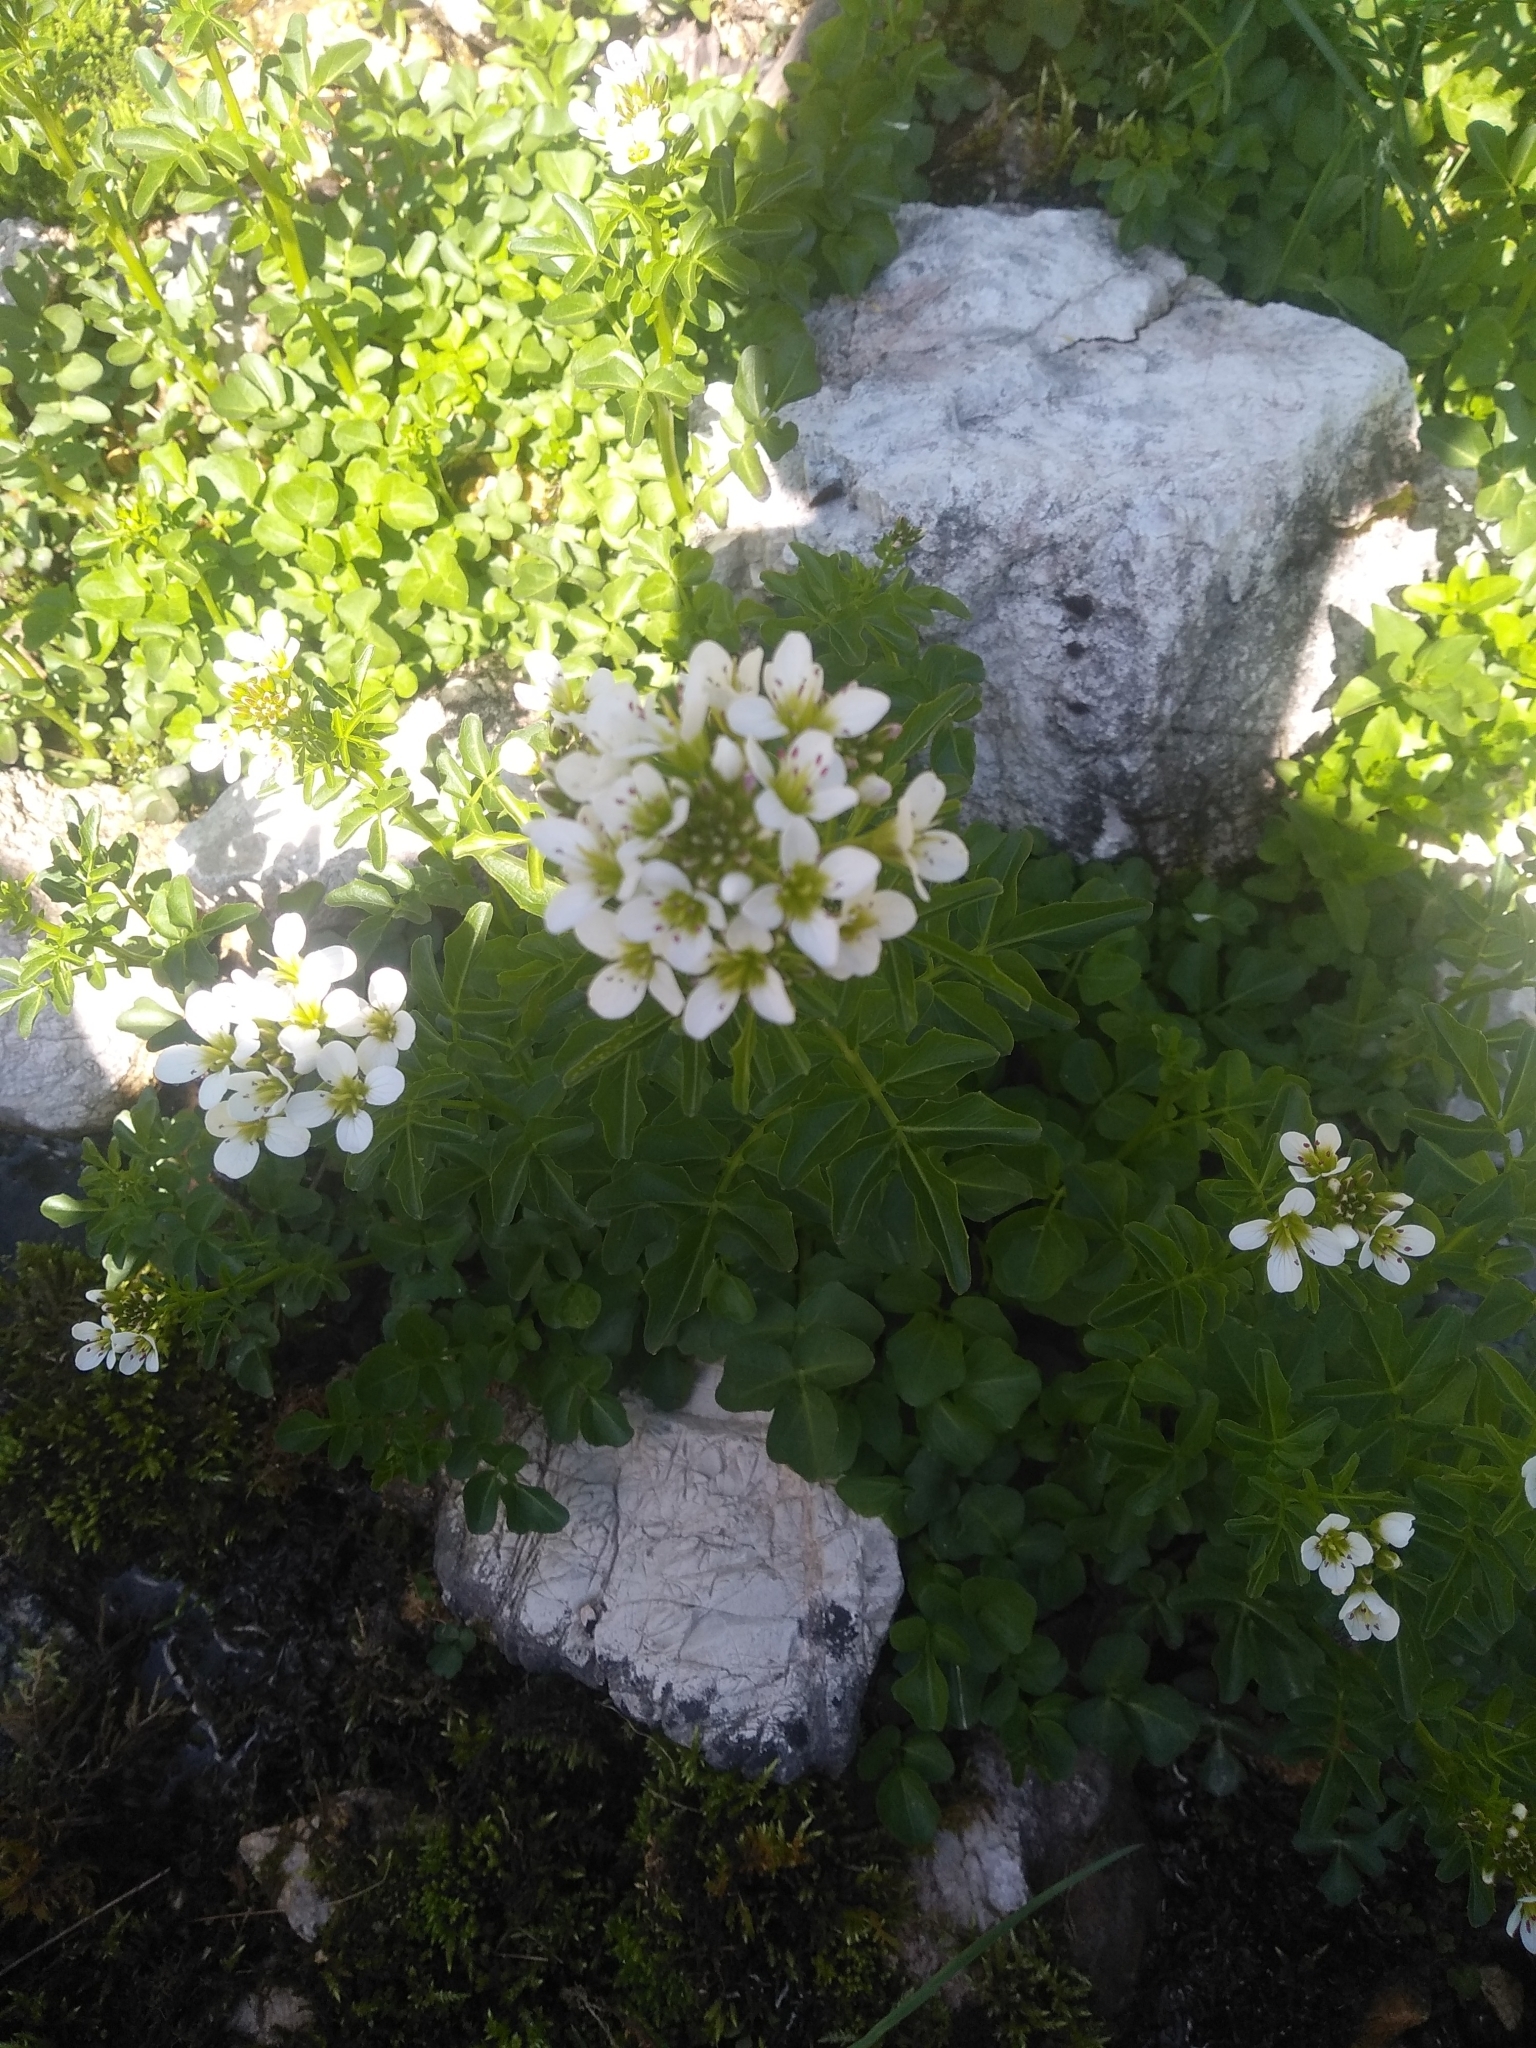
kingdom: Plantae
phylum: Tracheophyta
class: Magnoliopsida
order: Brassicales
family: Brassicaceae
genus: Cardamine
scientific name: Cardamine amara
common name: Large bitter-cress
